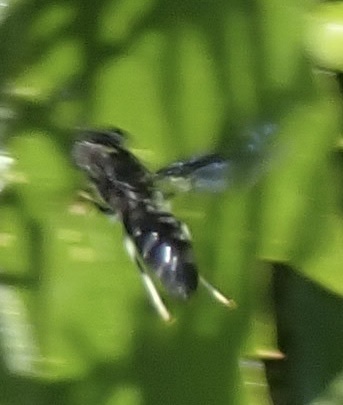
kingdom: Animalia
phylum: Arthropoda
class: Insecta
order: Diptera
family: Stratiomyidae
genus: Hermetia
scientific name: Hermetia illucens
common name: Black soldier fly
